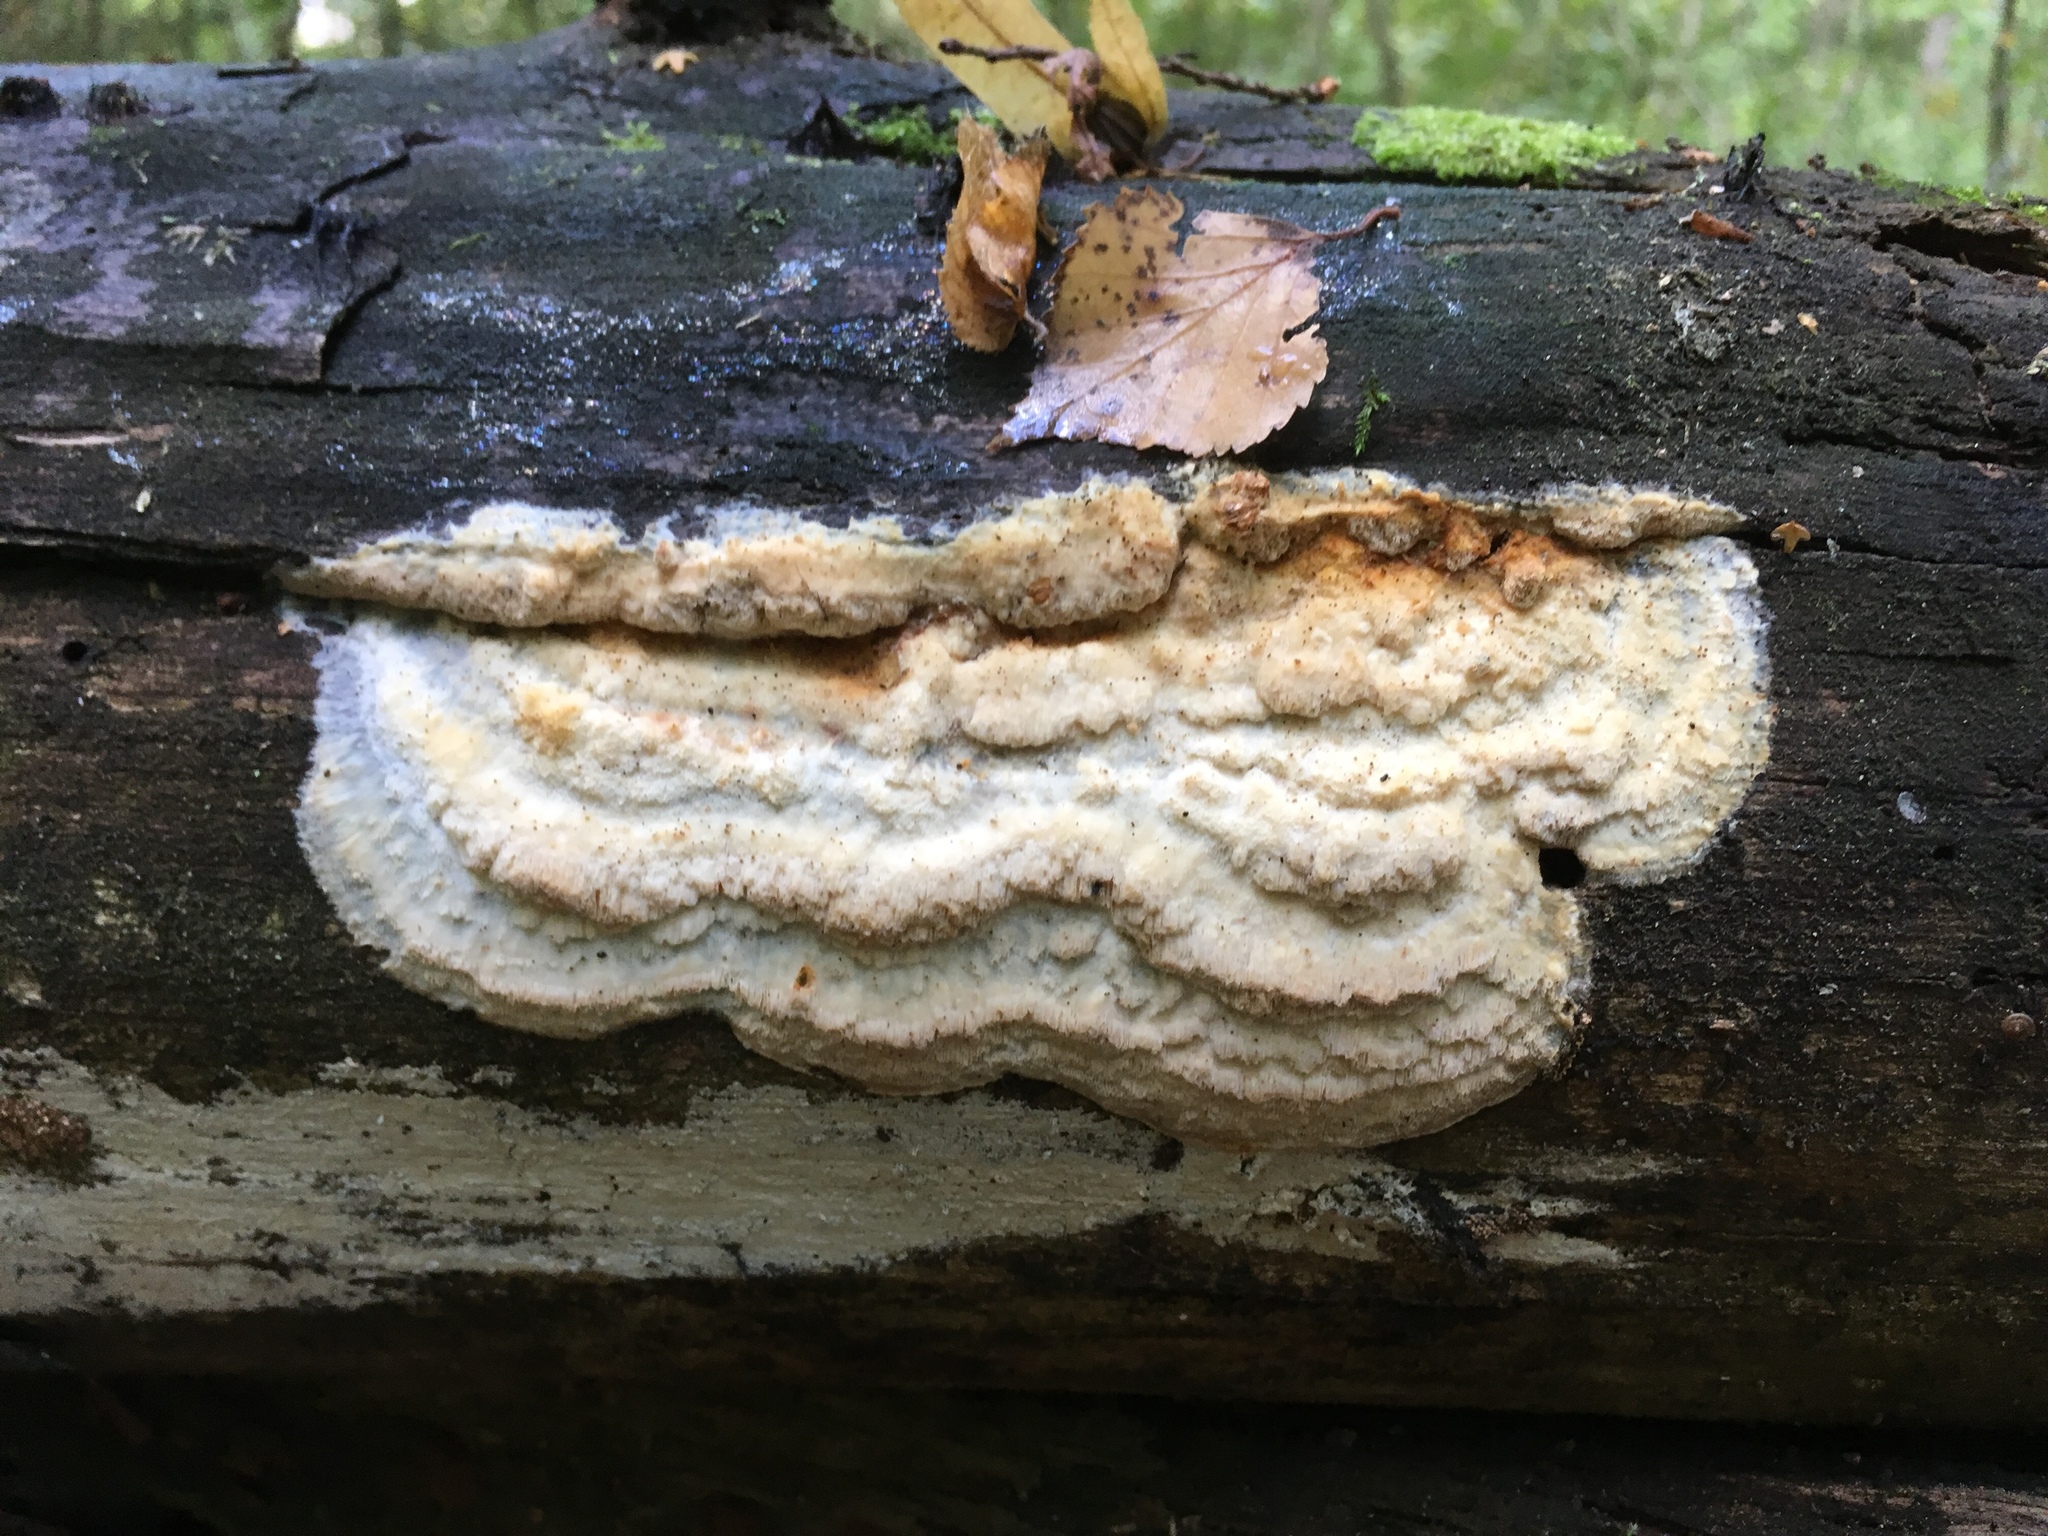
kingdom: Fungi
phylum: Basidiomycota
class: Agaricomycetes
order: Polyporales
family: Incrustoporiaceae
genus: Tyromyces
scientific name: Tyromyces odorus
